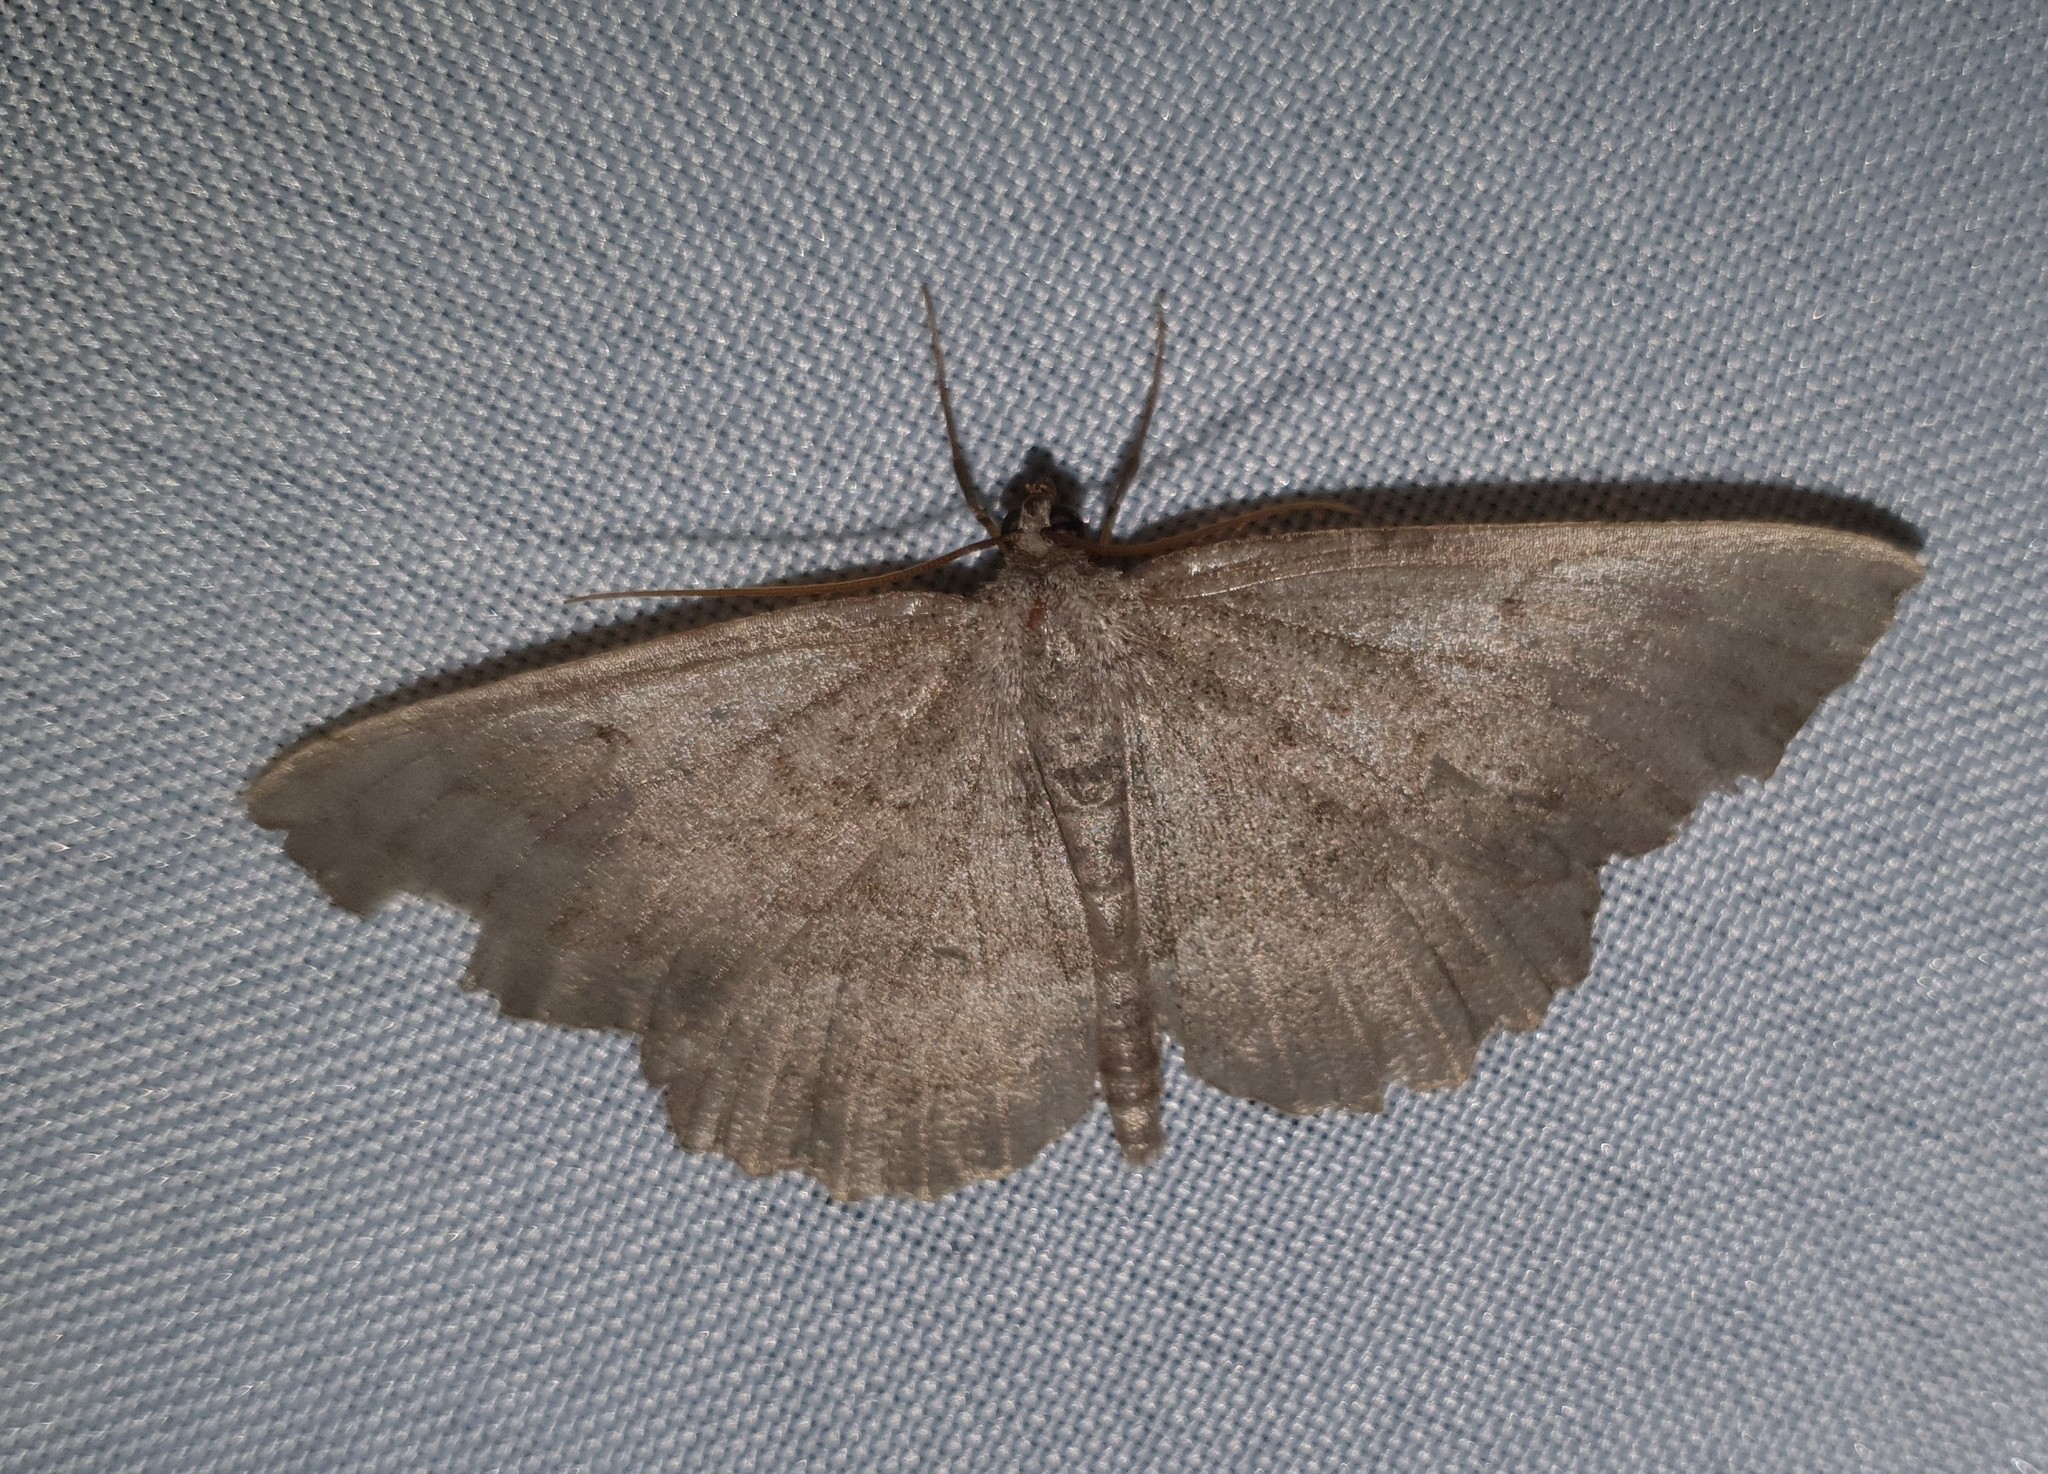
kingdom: Animalia
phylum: Arthropoda
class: Insecta
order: Lepidoptera
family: Geometridae
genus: Gnophos
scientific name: Gnophos furvata
